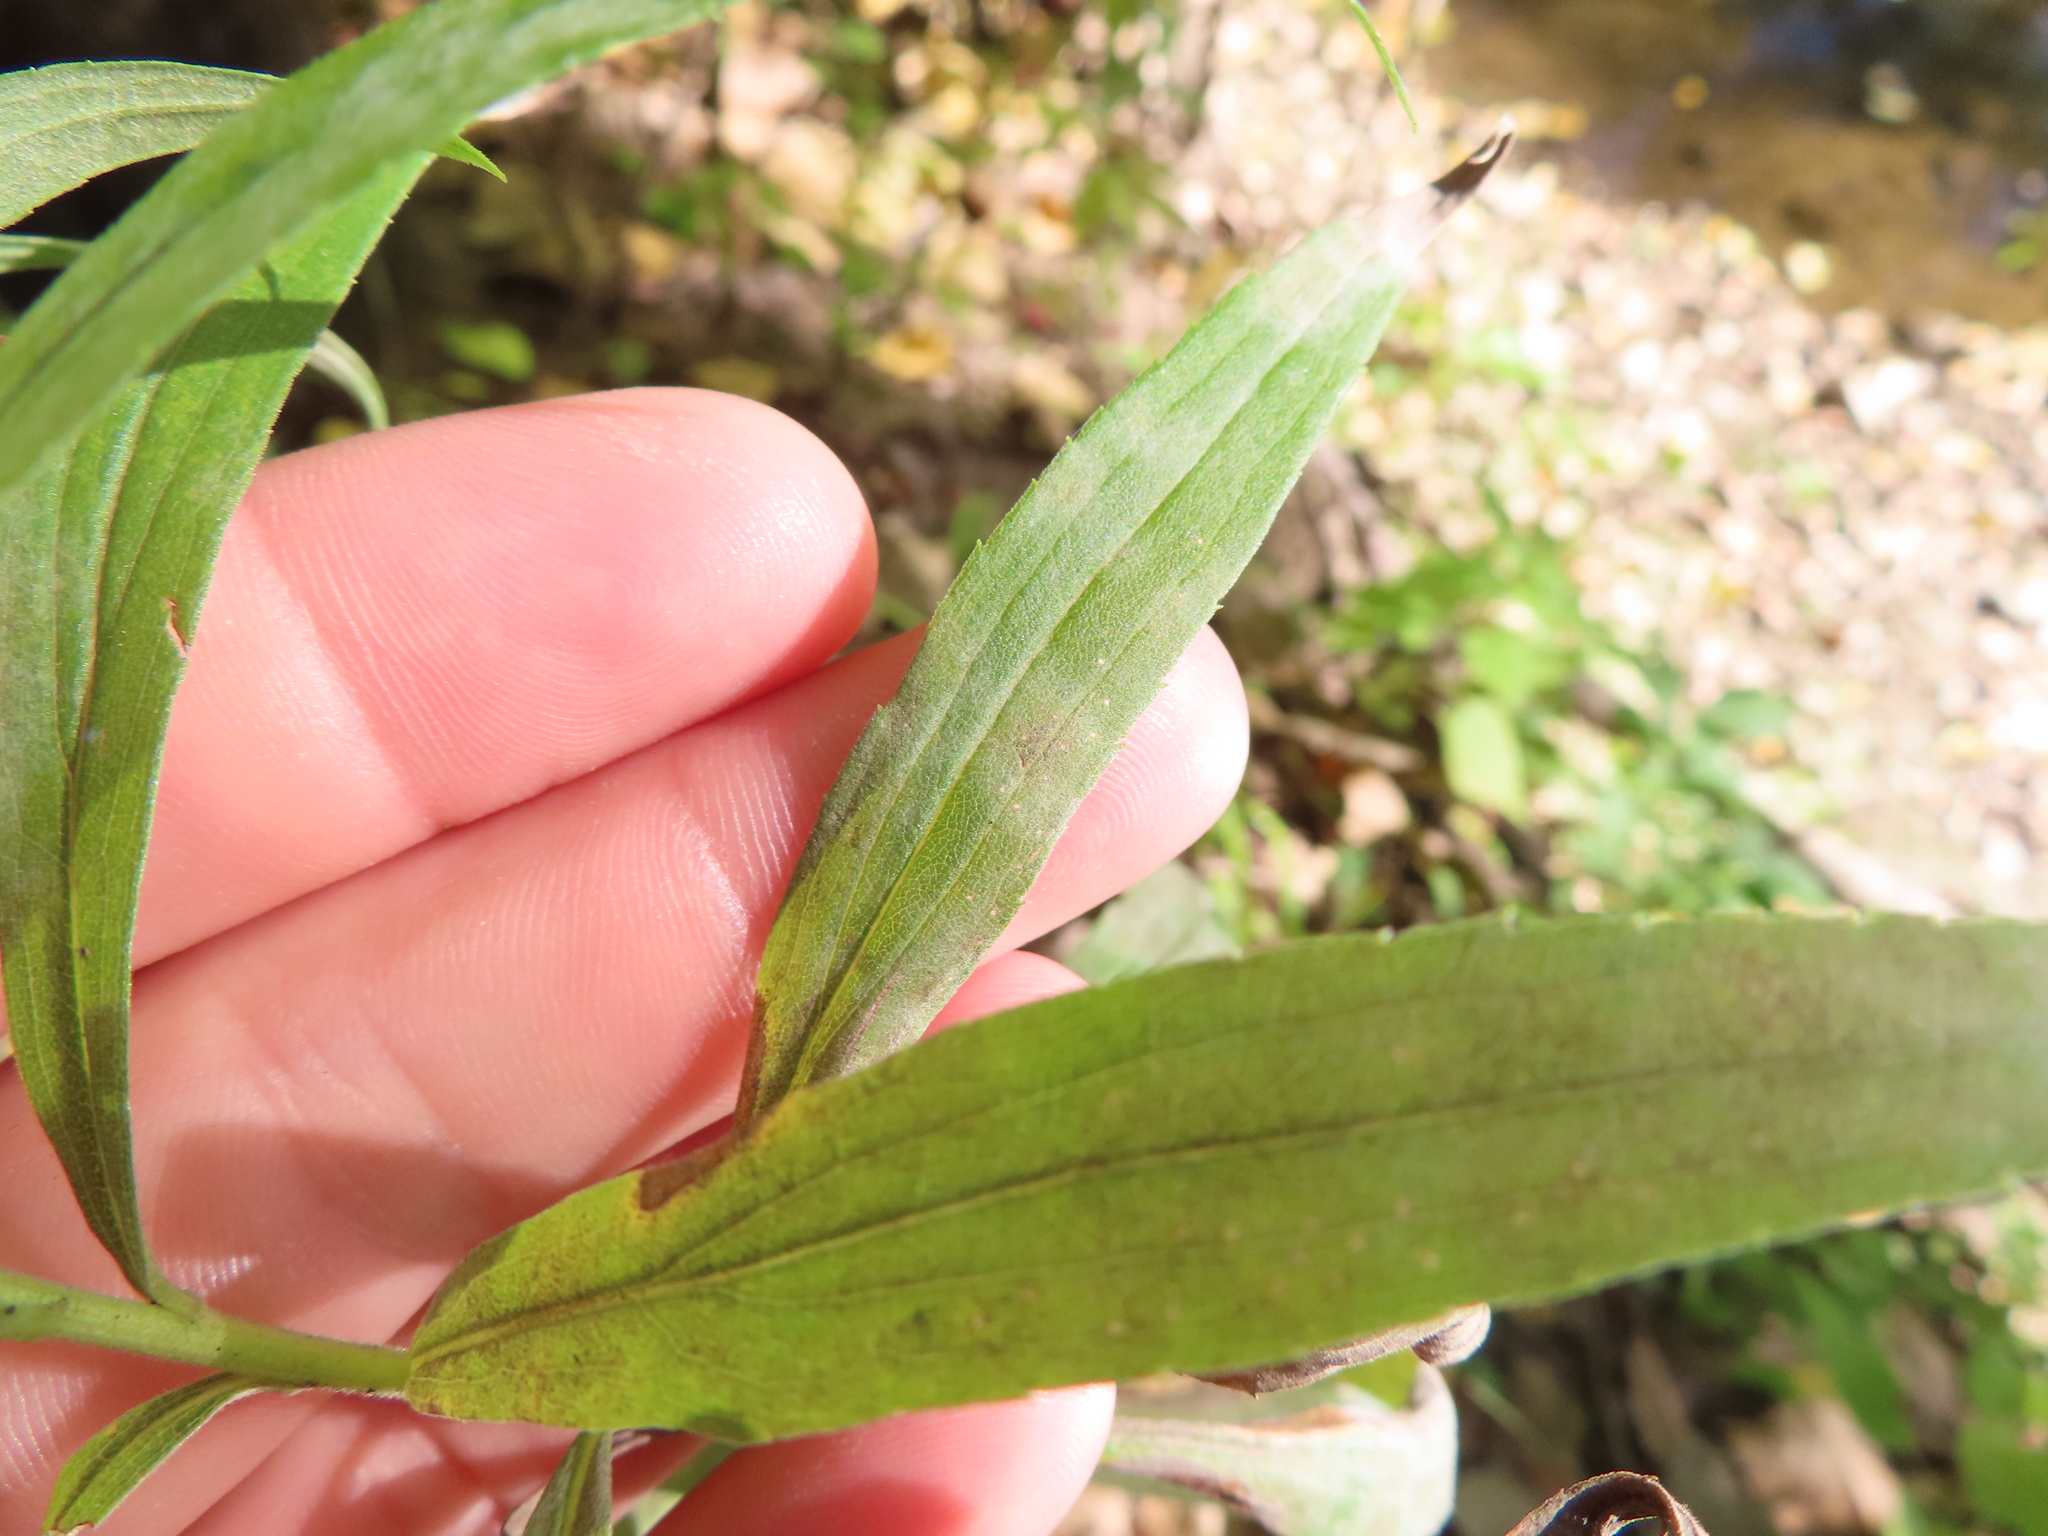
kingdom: Fungi
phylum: Ascomycota
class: Leotiomycetes
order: Helotiales
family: Erysiphaceae
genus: Golovinomyces
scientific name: Golovinomyces asterum
